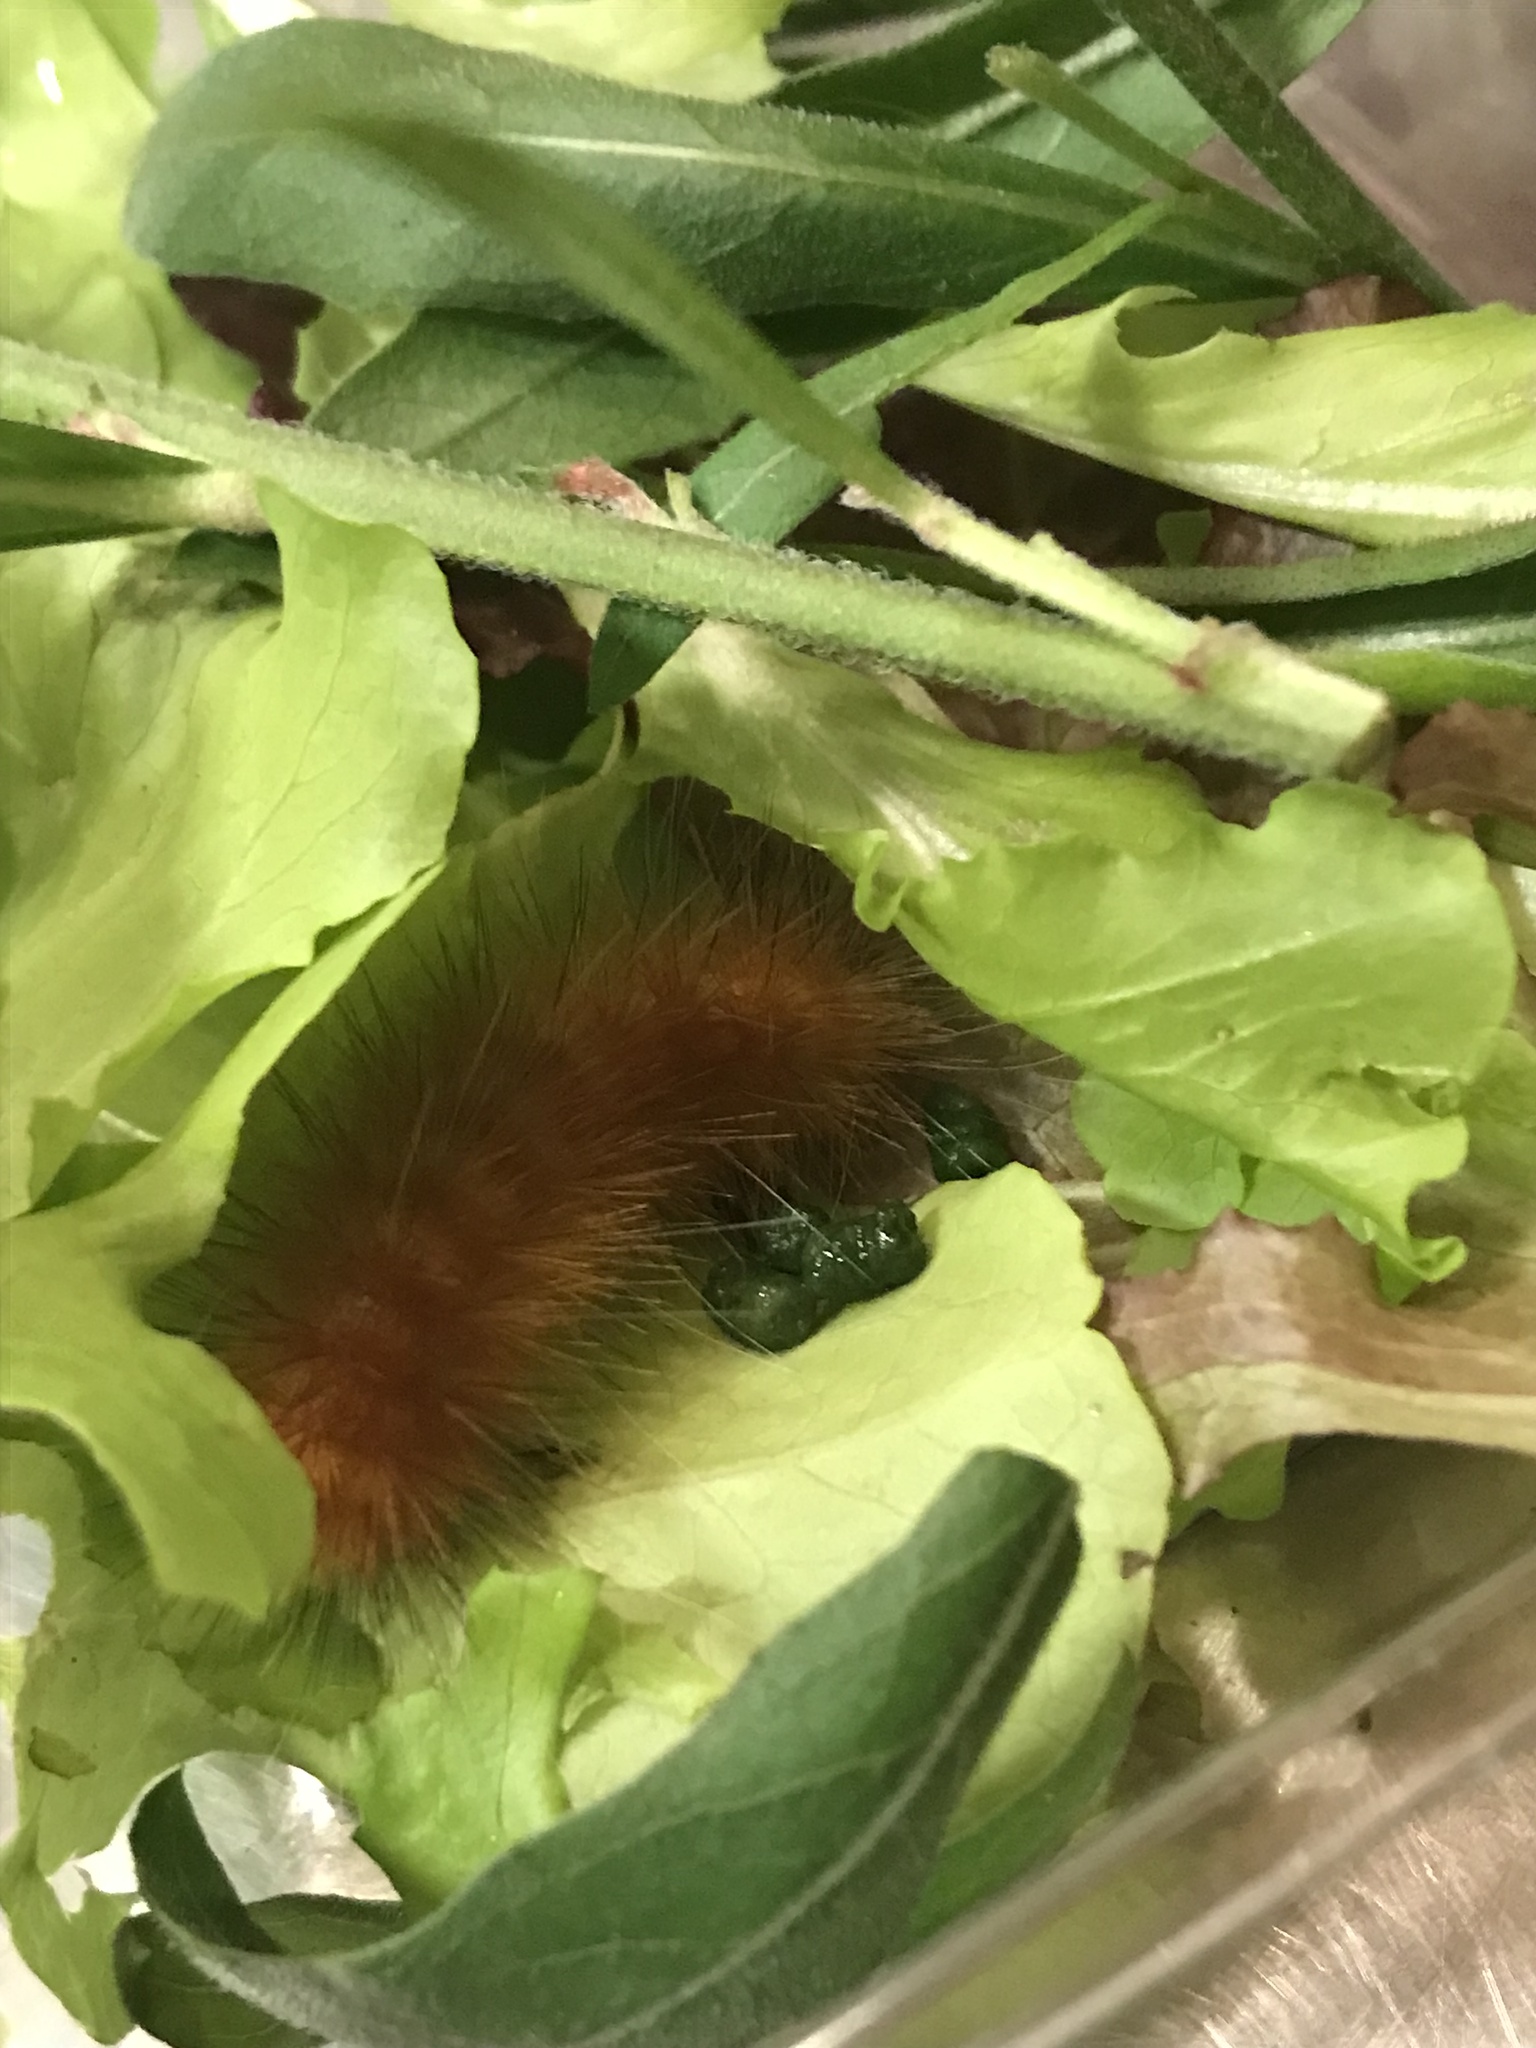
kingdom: Animalia
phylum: Arthropoda
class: Insecta
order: Lepidoptera
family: Erebidae
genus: Spilosoma
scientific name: Spilosoma virginica
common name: Virginia tiger moth
